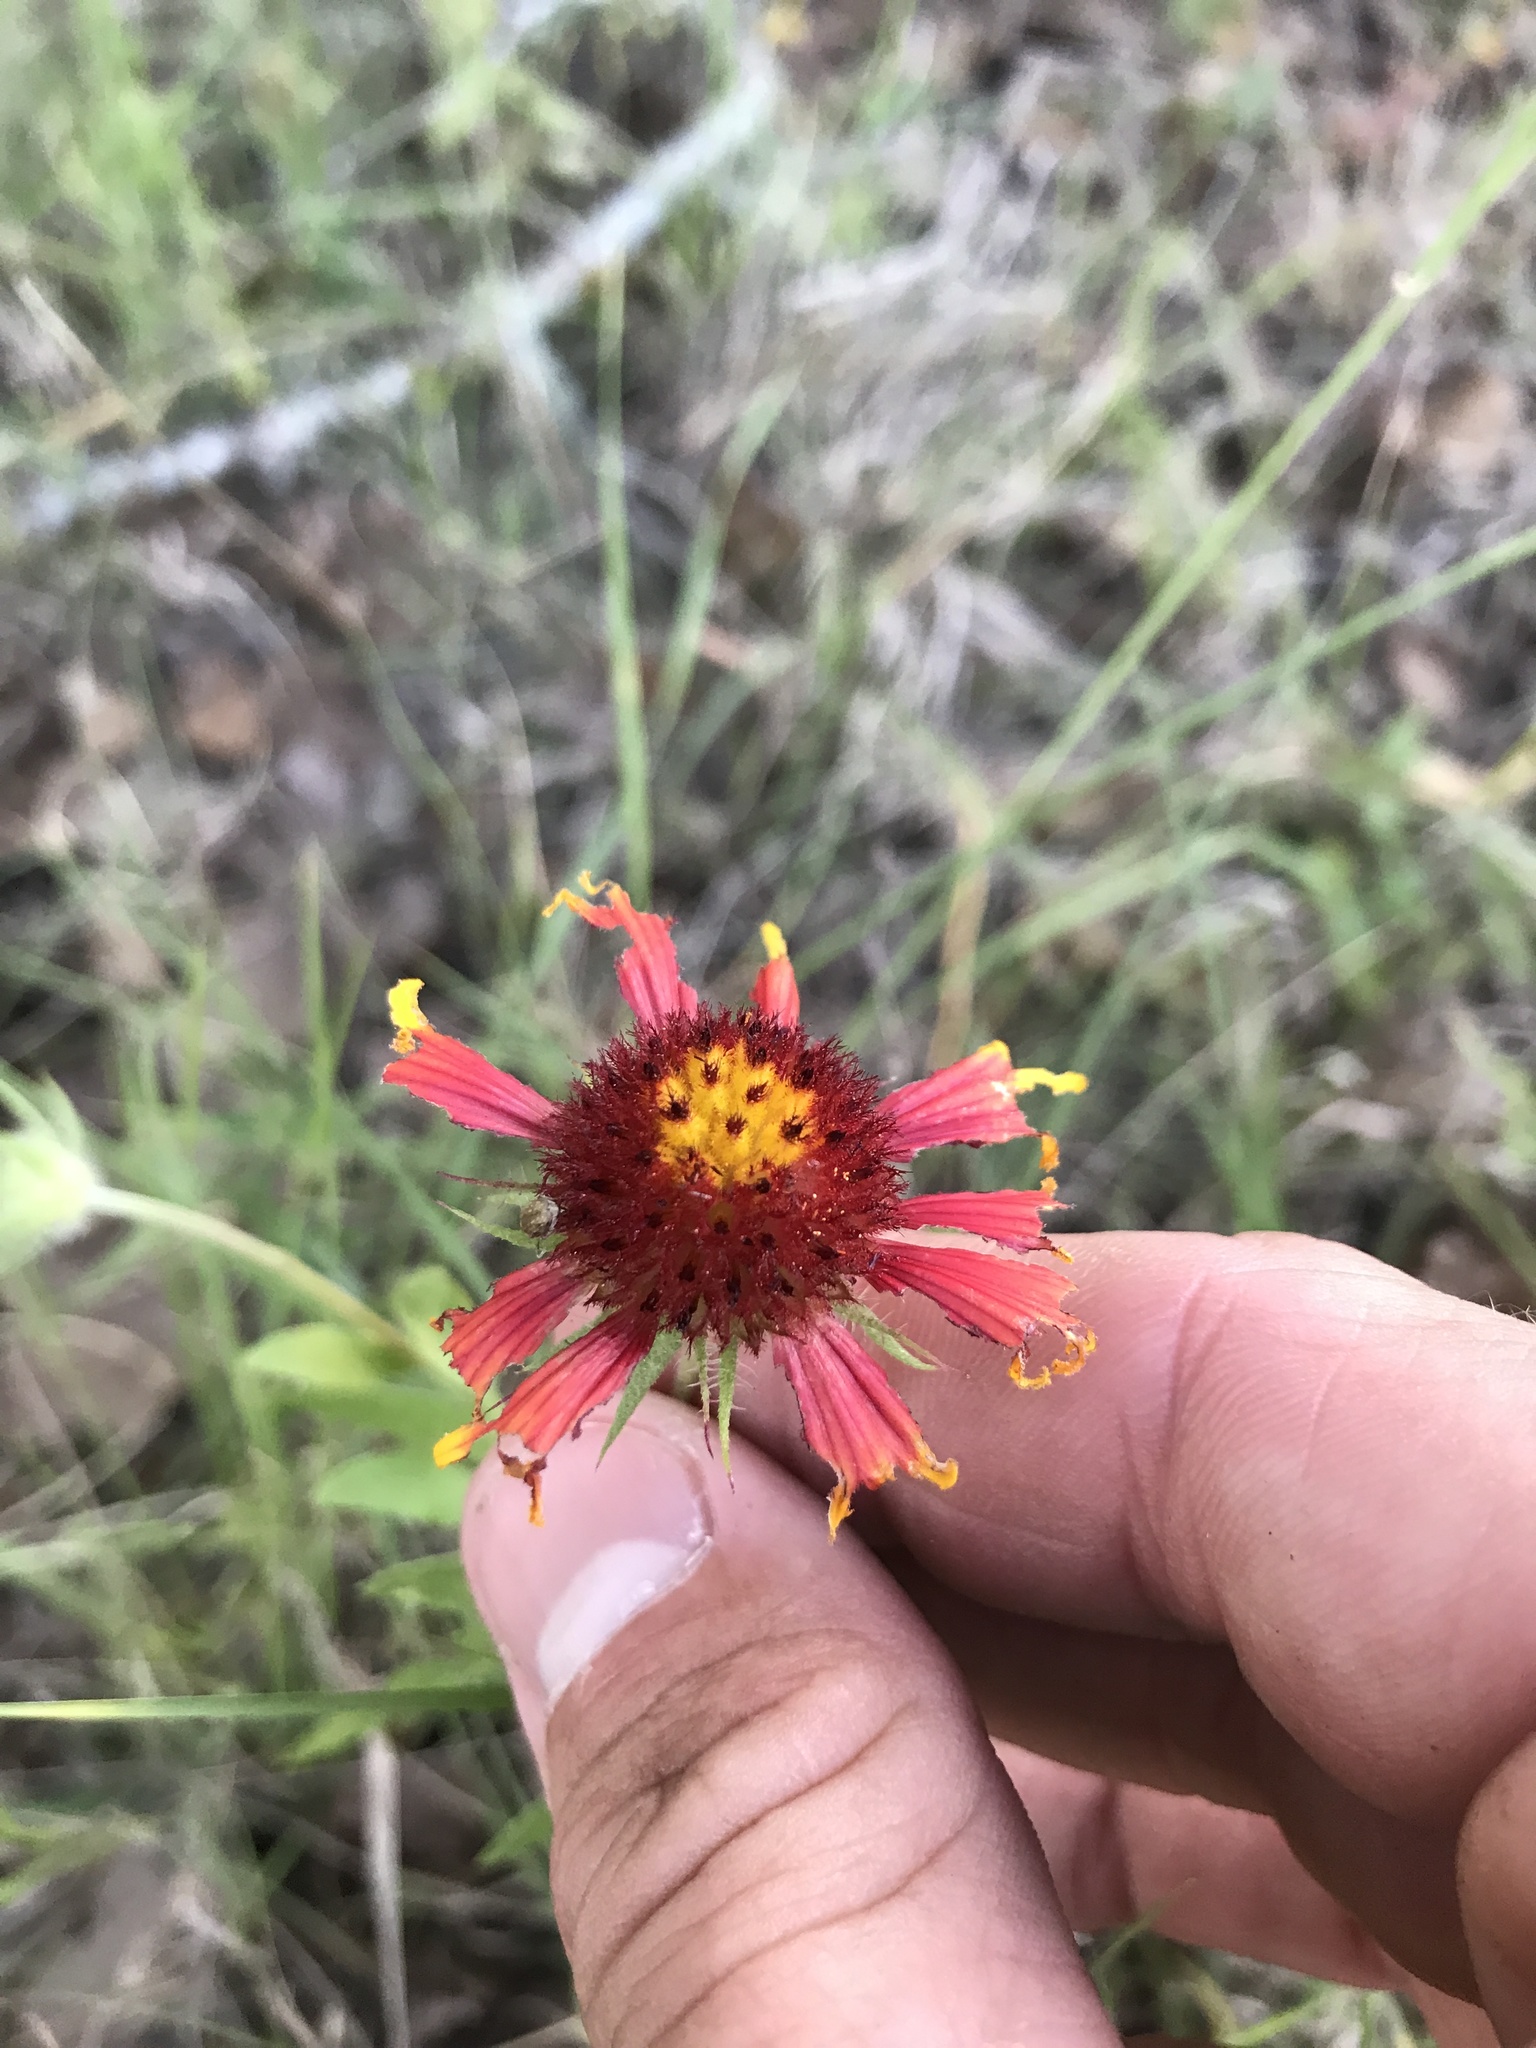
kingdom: Plantae
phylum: Tracheophyta
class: Magnoliopsida
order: Asterales
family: Asteraceae
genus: Gaillardia
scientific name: Gaillardia pulchella
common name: Firewheel
